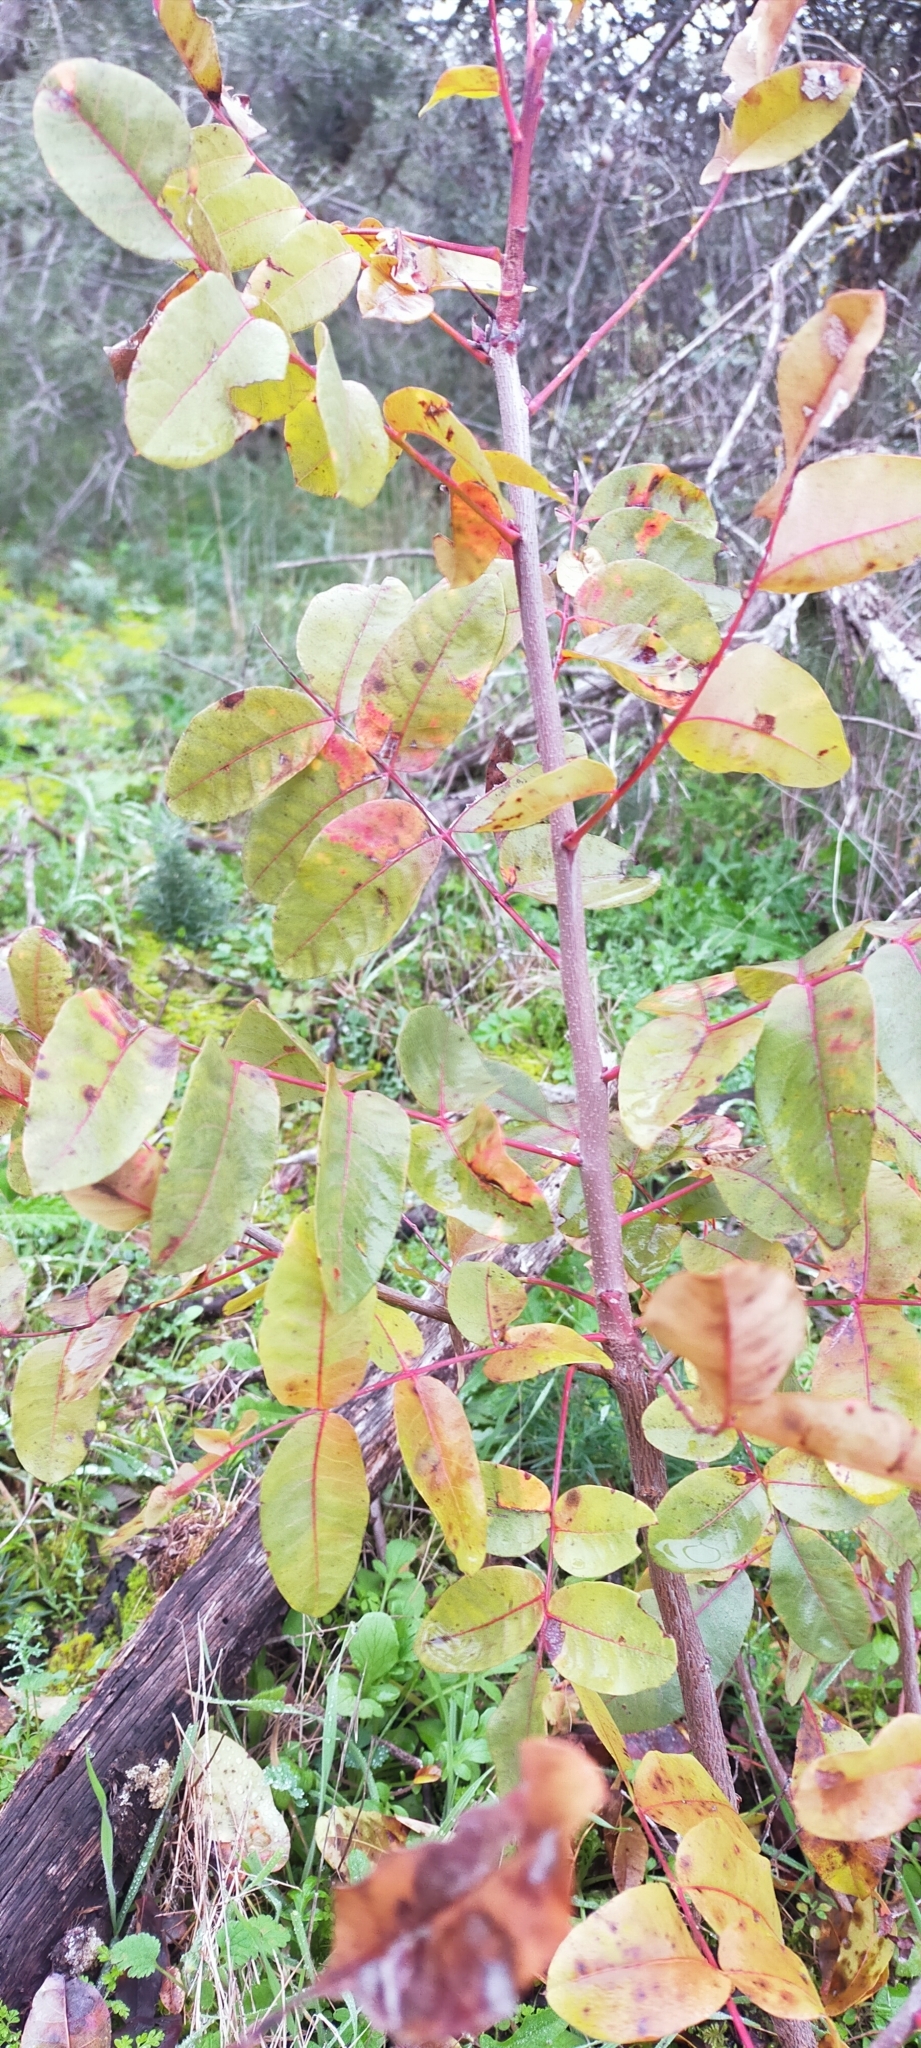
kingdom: Plantae
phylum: Tracheophyta
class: Magnoliopsida
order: Sapindales
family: Anacardiaceae
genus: Pistacia
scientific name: Pistacia terebinthus
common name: Terebinth
